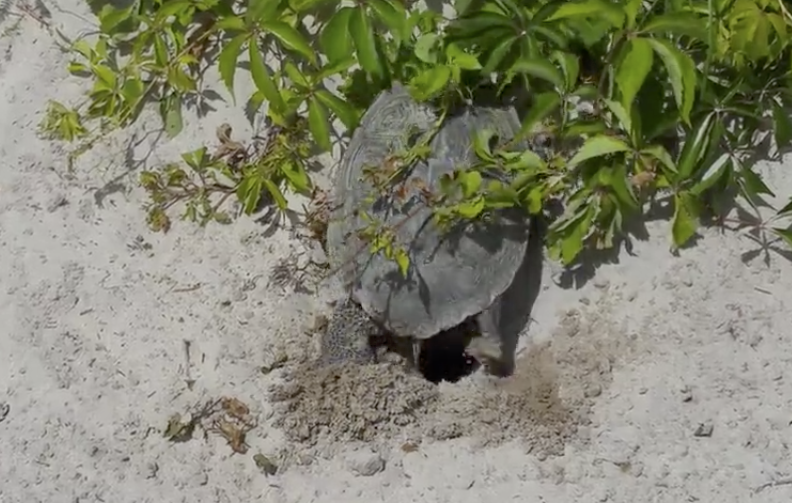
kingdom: Animalia
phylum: Chordata
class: Testudines
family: Emydidae
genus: Malaclemys
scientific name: Malaclemys terrapin
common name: Diamondback terrapin
